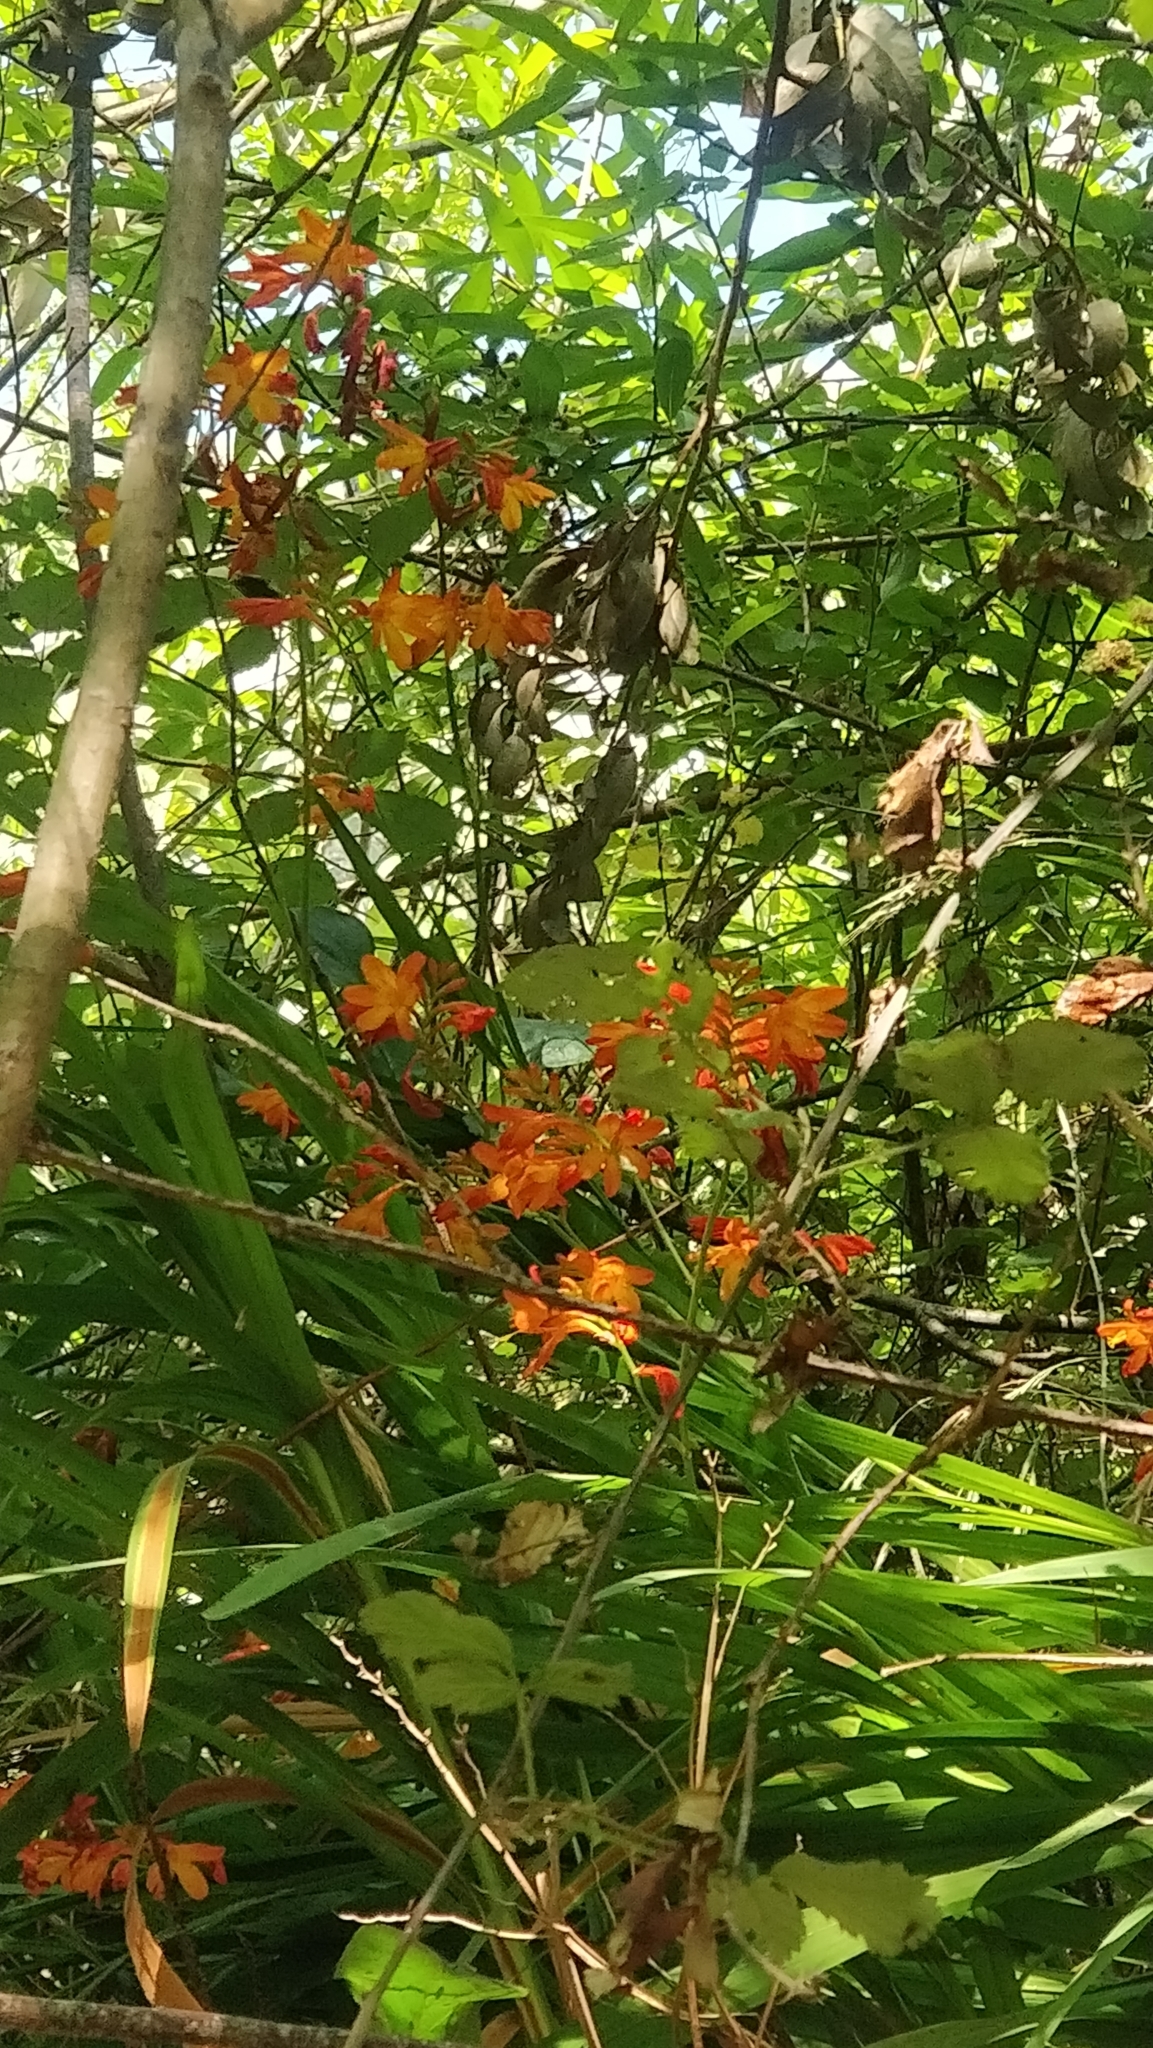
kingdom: Plantae
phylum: Tracheophyta
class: Liliopsida
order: Asparagales
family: Iridaceae
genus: Crocosmia
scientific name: Crocosmia crocosmiiflora
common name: Montbretia
